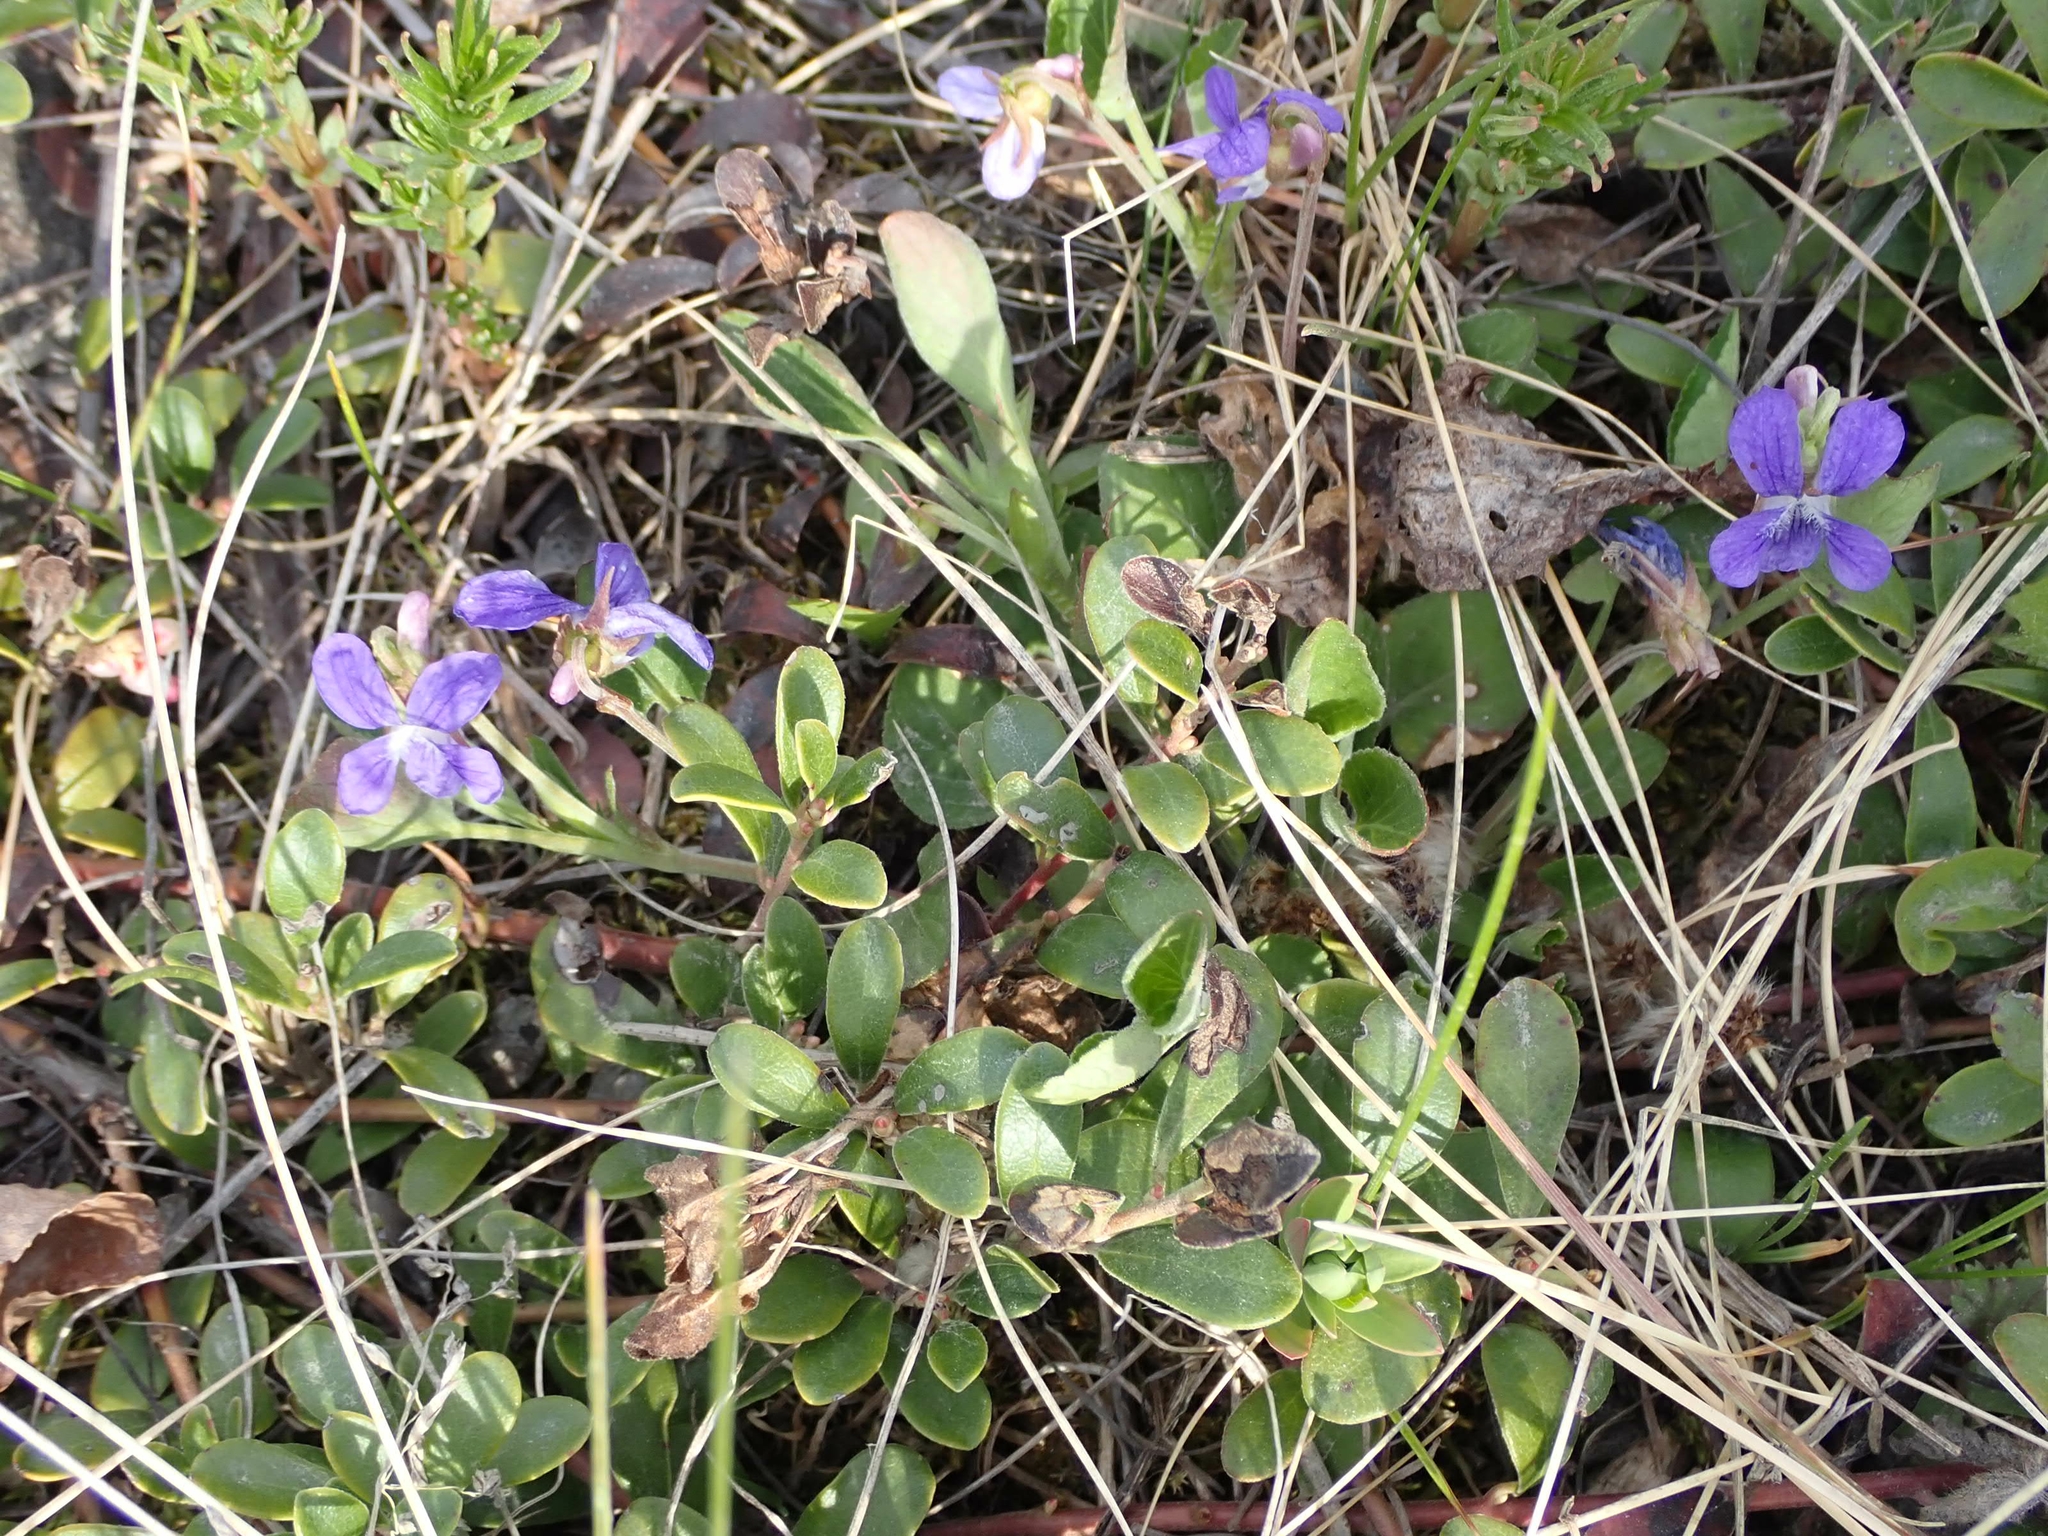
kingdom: Plantae
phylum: Tracheophyta
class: Magnoliopsida
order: Malpighiales
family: Violaceae
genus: Viola
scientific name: Viola adunca
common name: Sand violet
